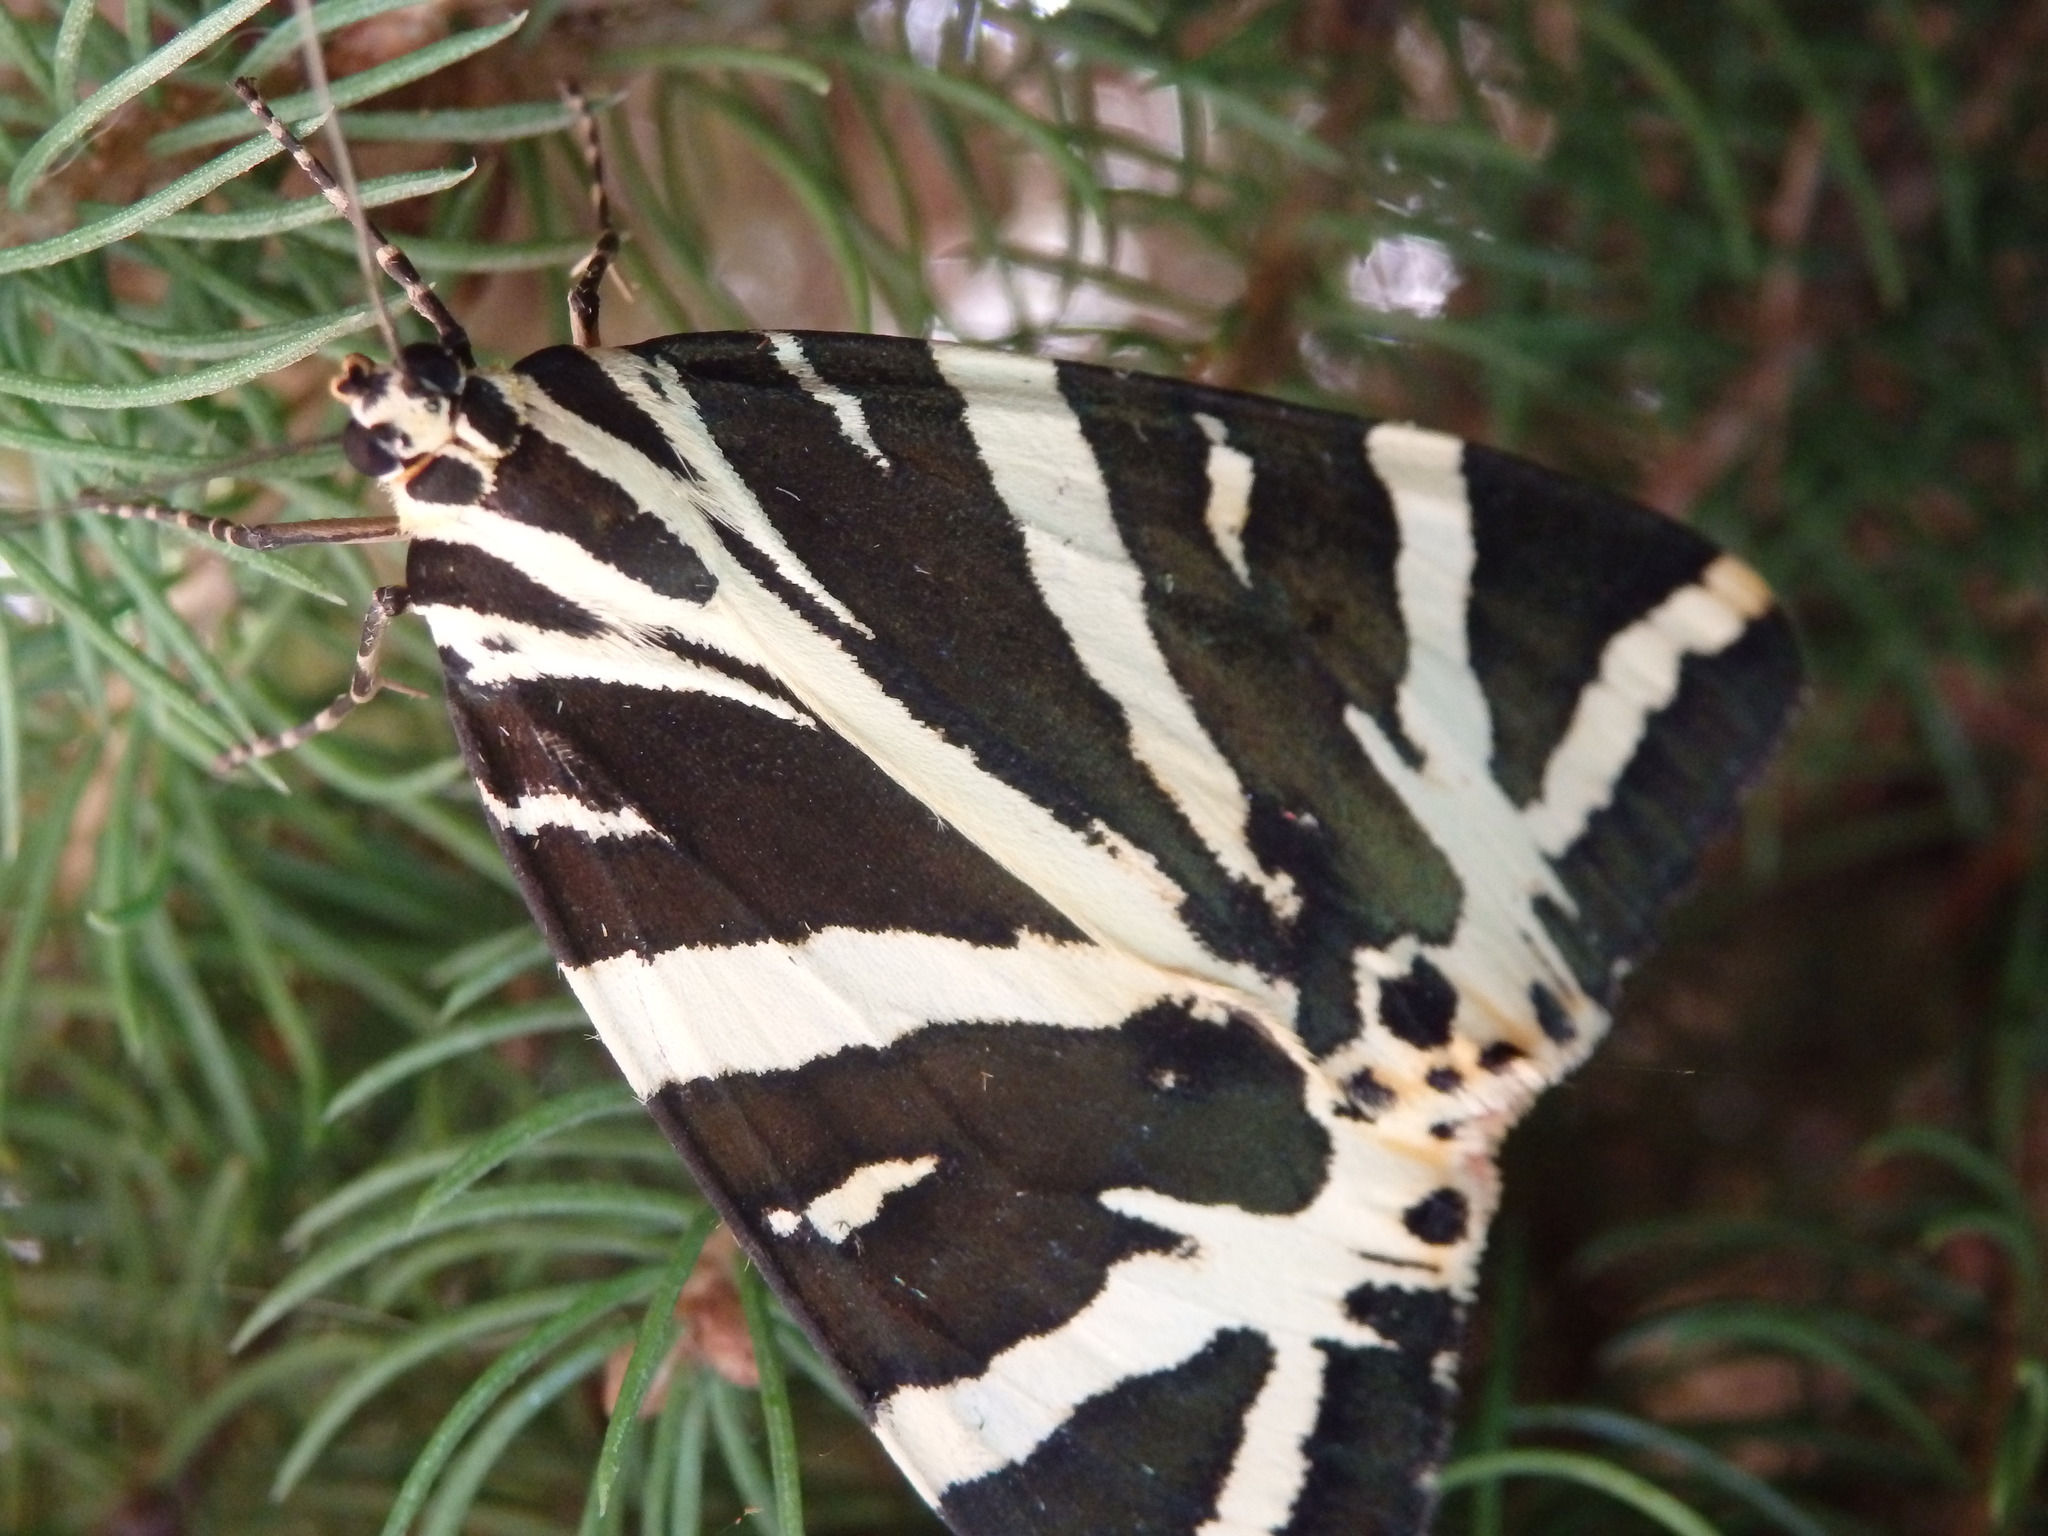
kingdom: Animalia
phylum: Arthropoda
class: Insecta
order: Lepidoptera
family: Erebidae
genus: Euplagia
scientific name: Euplagia quadripunctaria
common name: Jersey tiger
